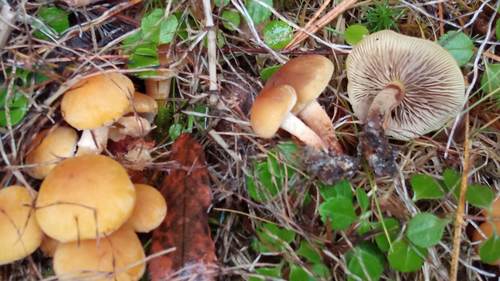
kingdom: Fungi
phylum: Basidiomycota
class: Agaricomycetes
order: Agaricales
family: Strophariaceae
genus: Hypholoma
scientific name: Hypholoma capnoides
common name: Conifer tuft
